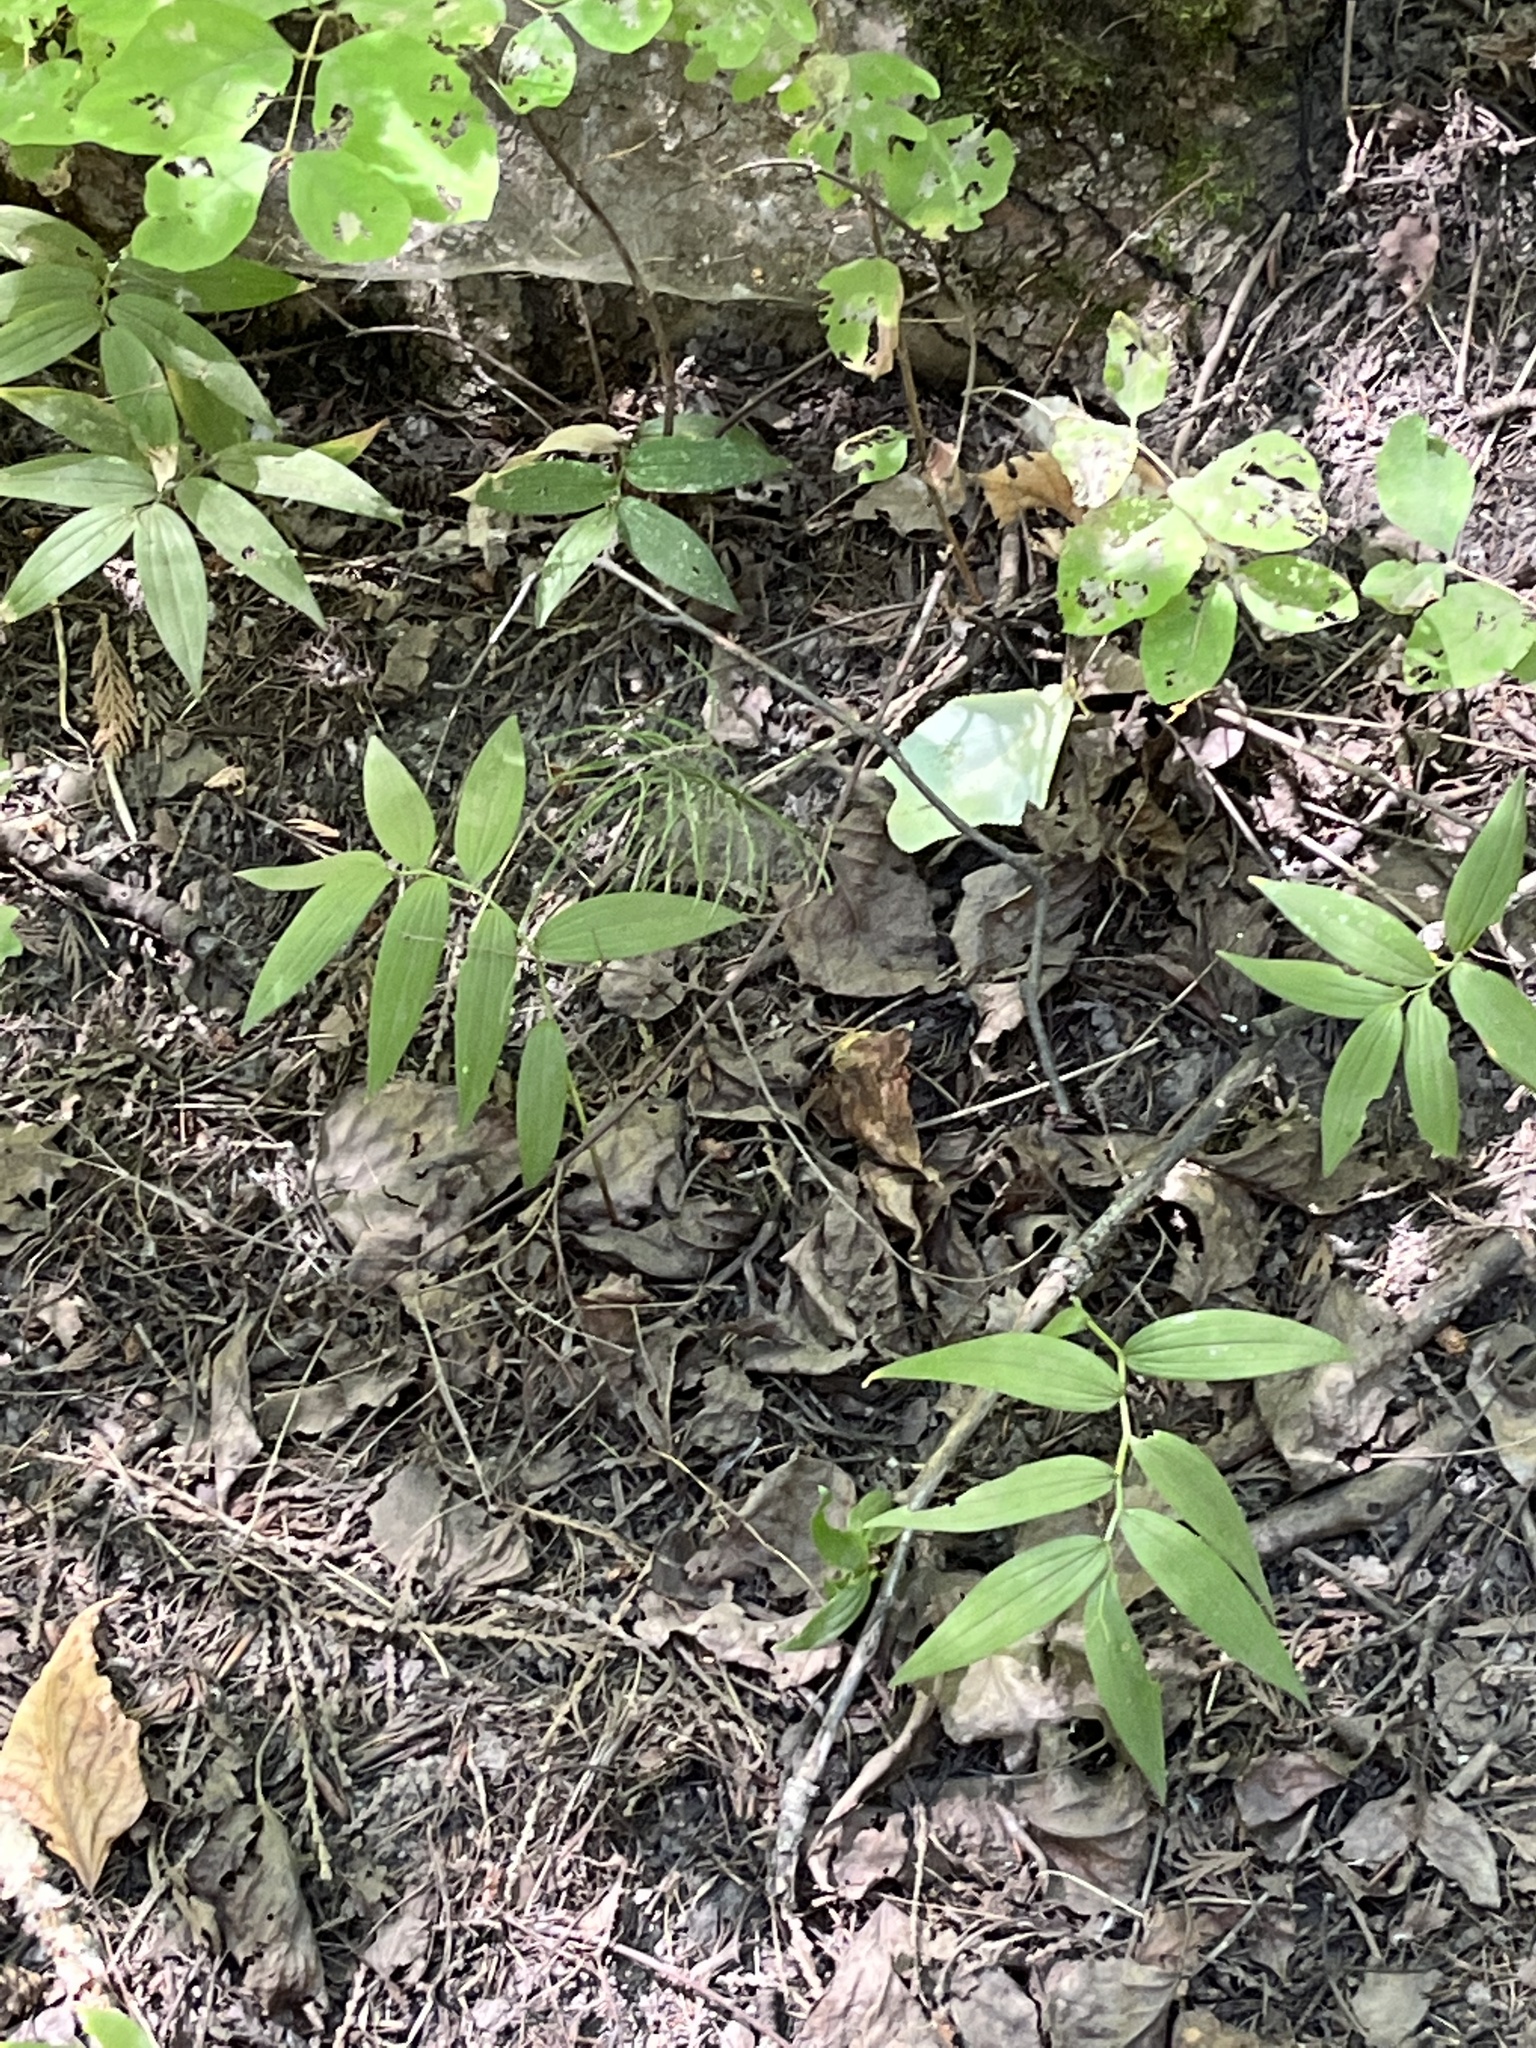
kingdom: Plantae
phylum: Tracheophyta
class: Liliopsida
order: Asparagales
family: Asparagaceae
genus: Maianthemum
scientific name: Maianthemum stellatum
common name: Little false solomon's seal
